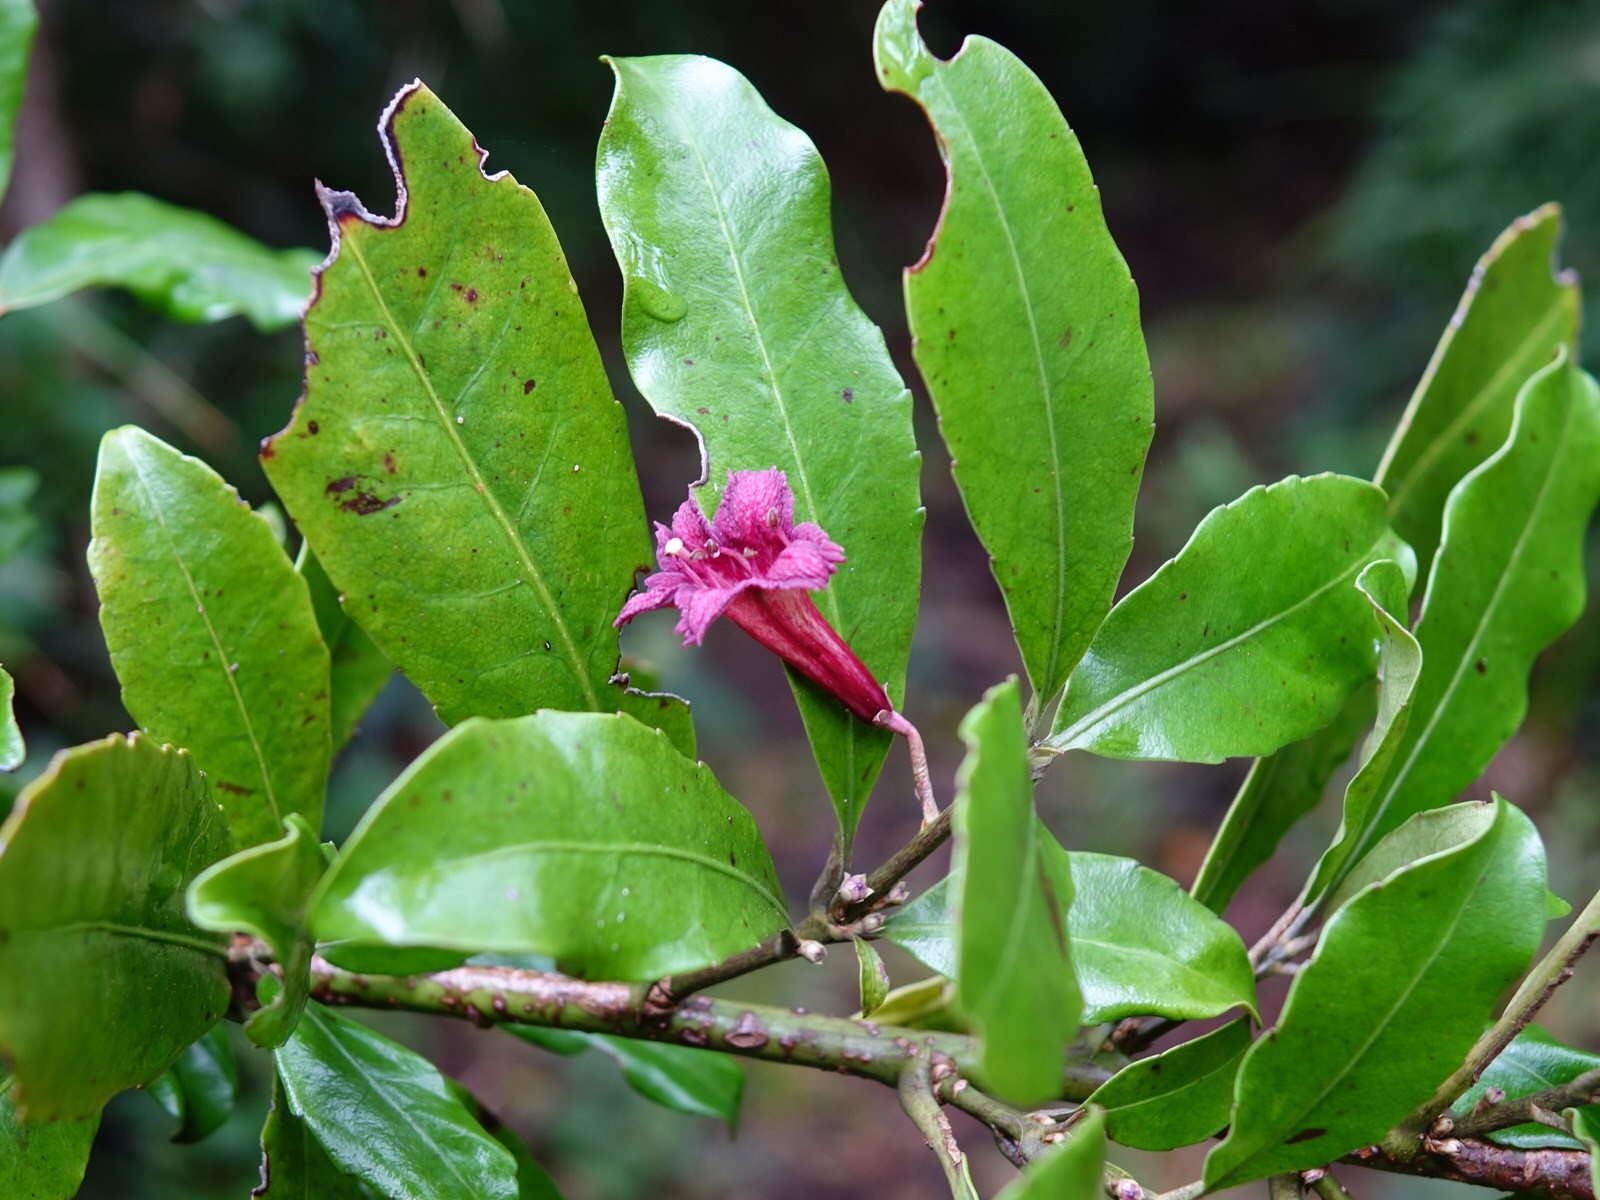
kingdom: Plantae
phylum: Tracheophyta
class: Magnoliopsida
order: Asterales
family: Alseuosmiaceae
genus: Alseuosmia
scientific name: Alseuosmia macrophylla
